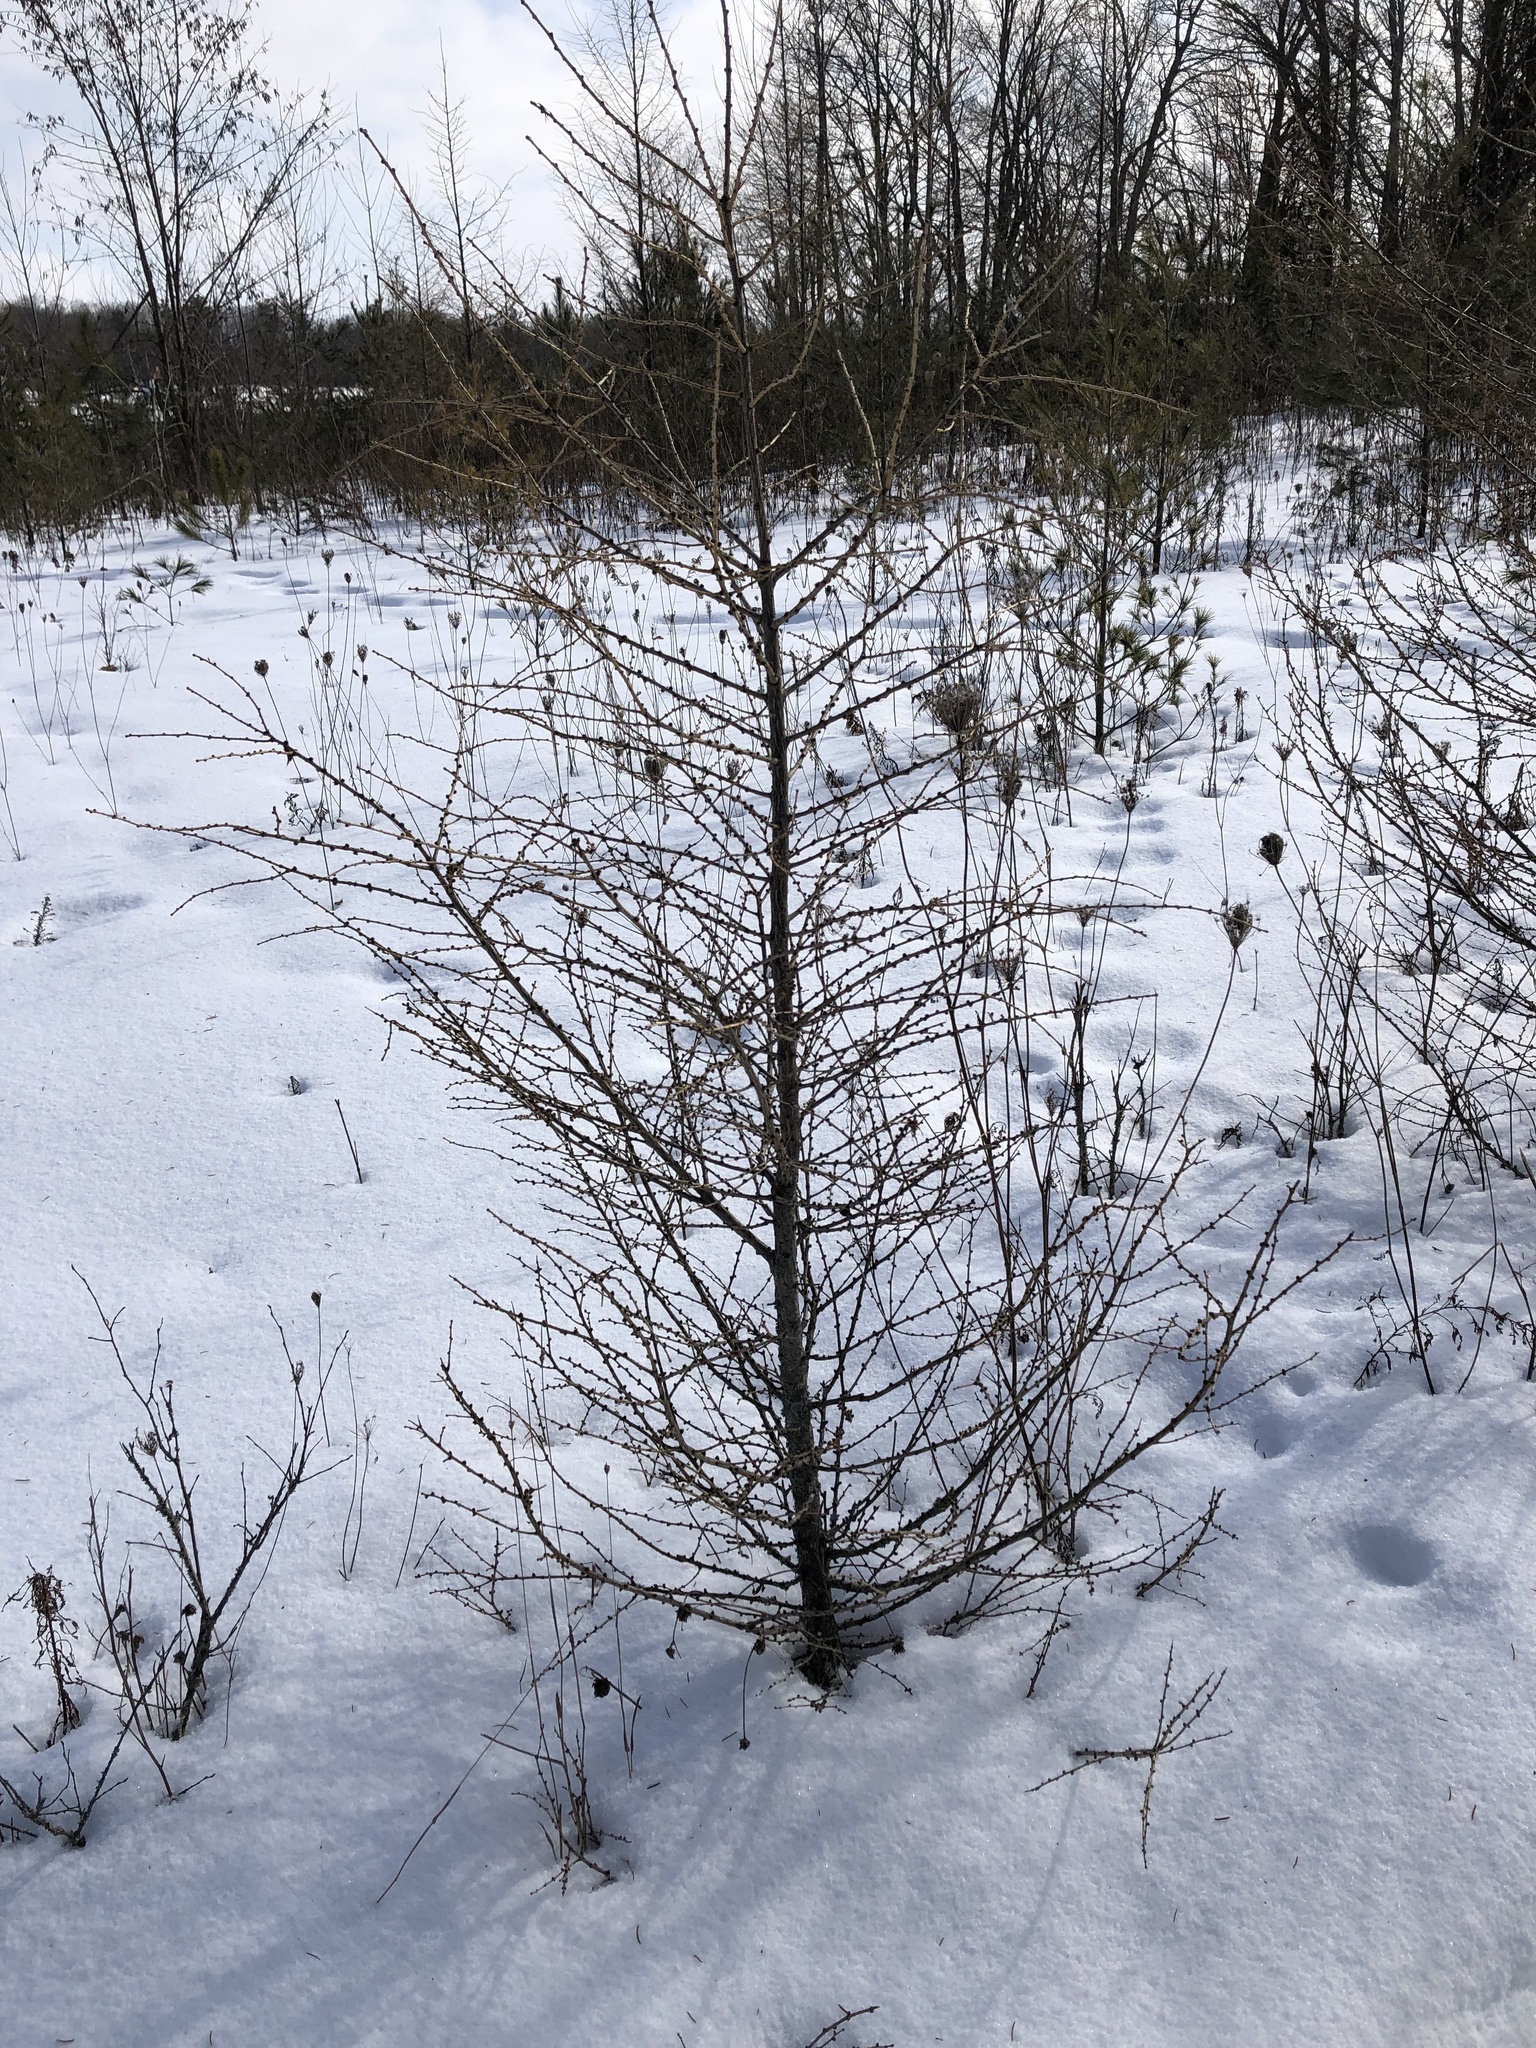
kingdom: Plantae
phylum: Tracheophyta
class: Pinopsida
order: Pinales
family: Pinaceae
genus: Larix
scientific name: Larix laricina
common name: American larch
